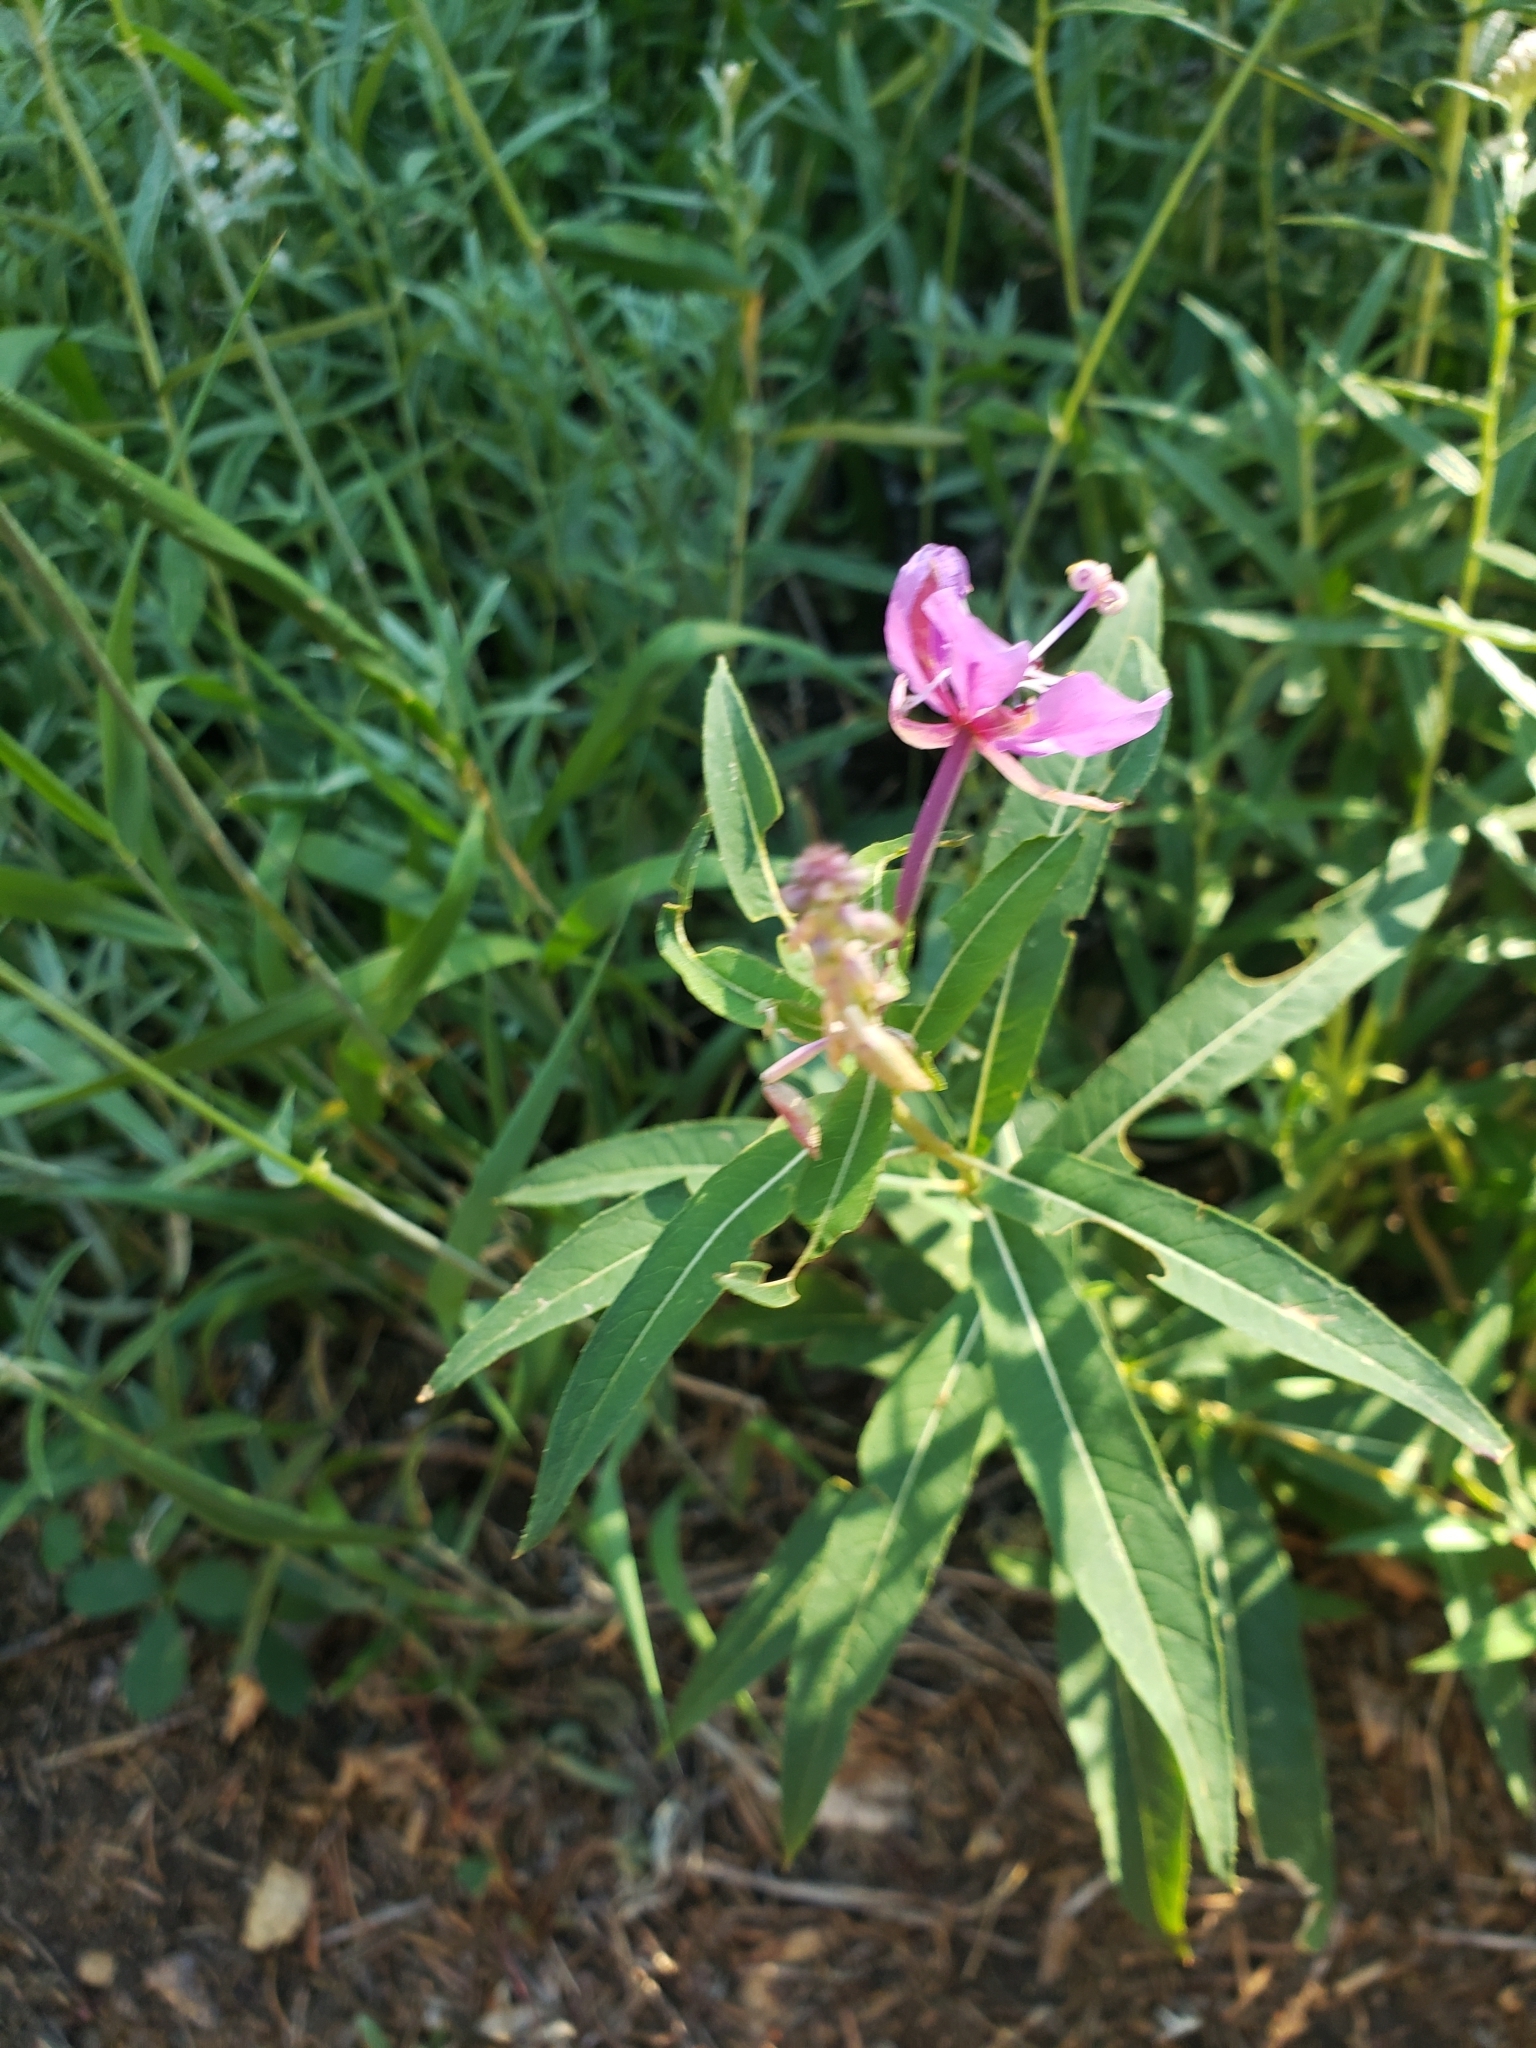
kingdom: Plantae
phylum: Tracheophyta
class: Magnoliopsida
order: Myrtales
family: Onagraceae
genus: Chamaenerion
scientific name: Chamaenerion angustifolium
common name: Fireweed
